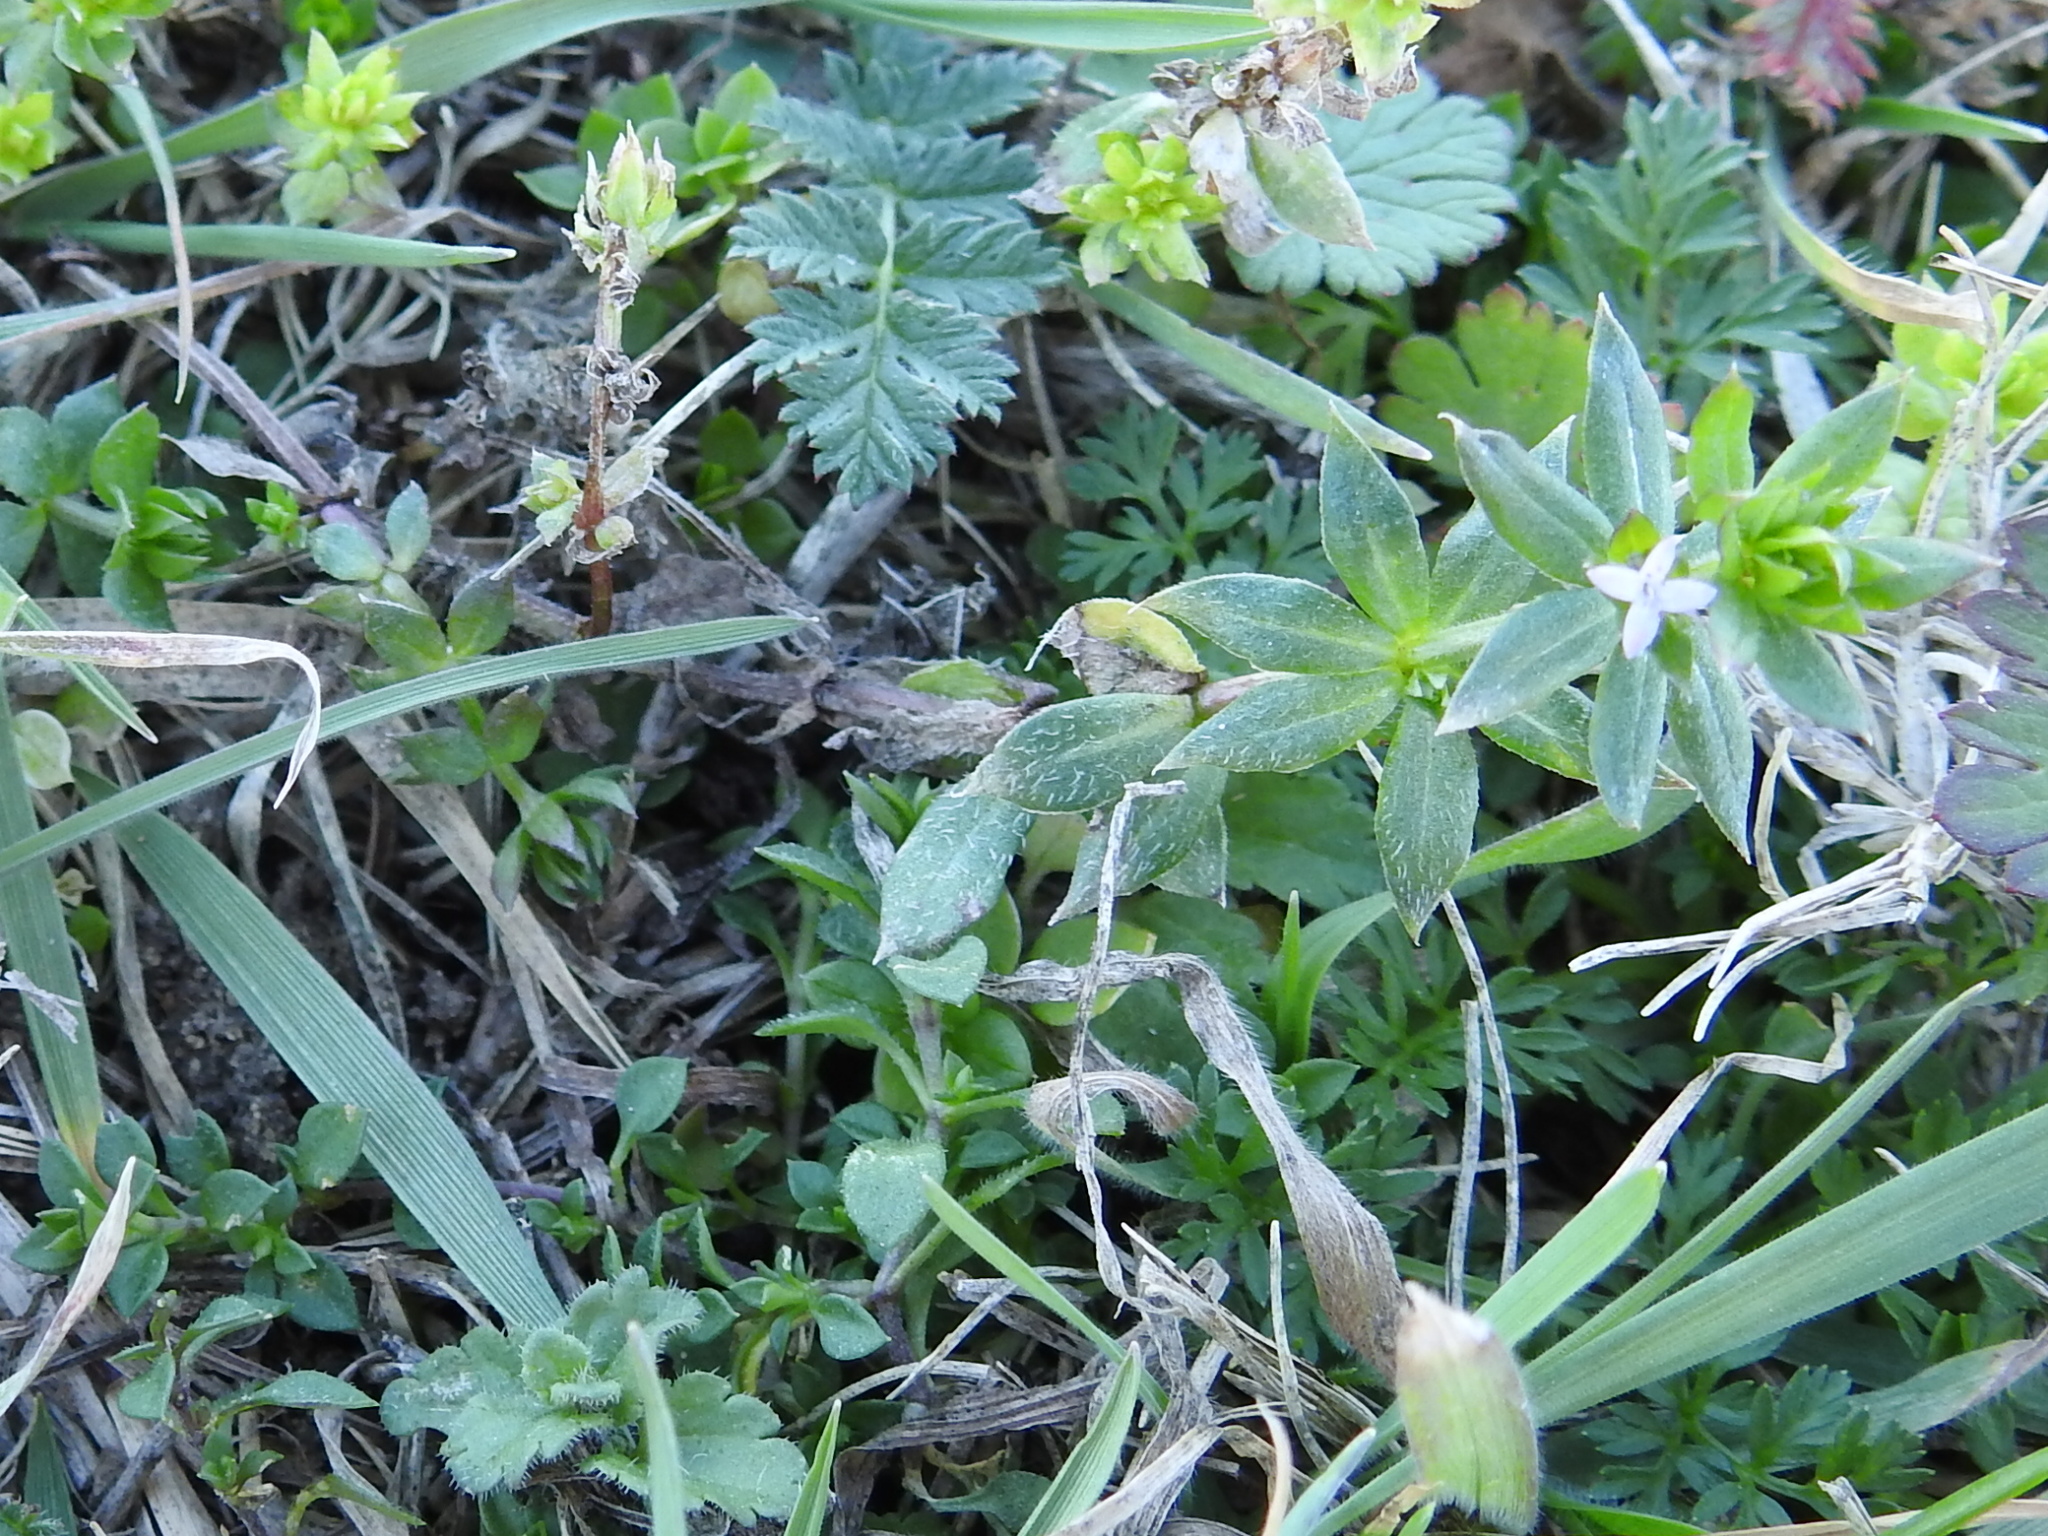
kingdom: Plantae
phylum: Tracheophyta
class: Magnoliopsida
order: Gentianales
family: Rubiaceae
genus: Sherardia
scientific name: Sherardia arvensis
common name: Field madder
